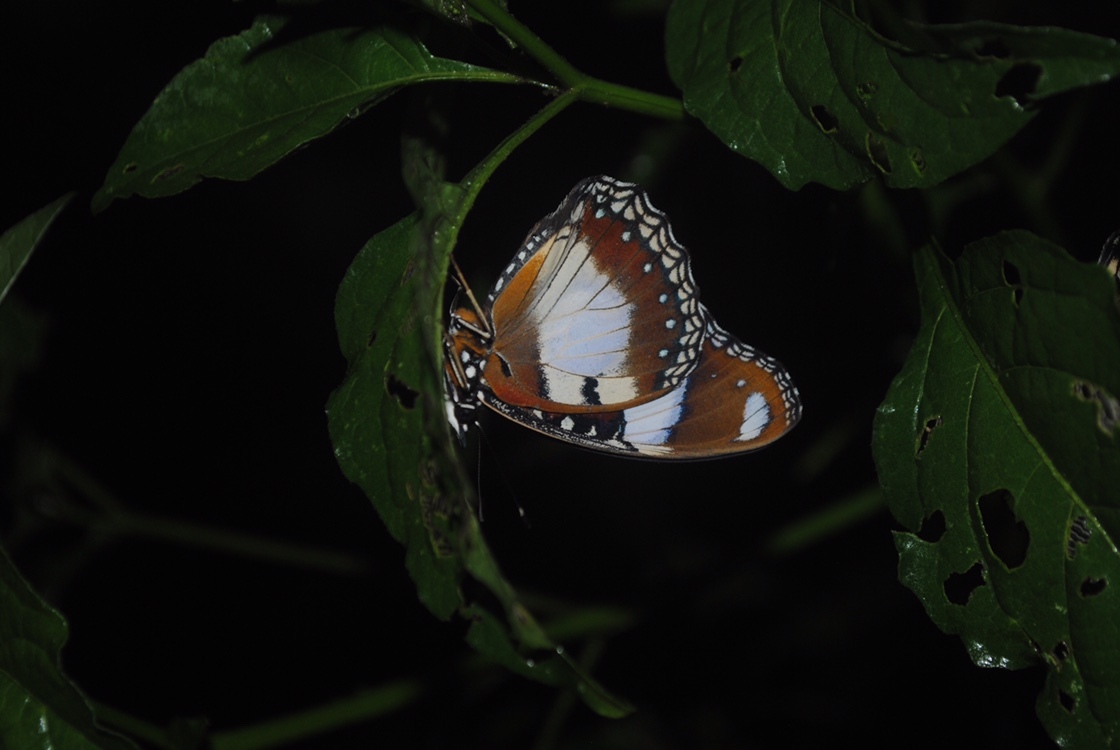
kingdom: Animalia
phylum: Arthropoda
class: Insecta
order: Lepidoptera
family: Nymphalidae
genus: Hypolimnas
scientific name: Hypolimnas misippus
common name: False plain tiger
